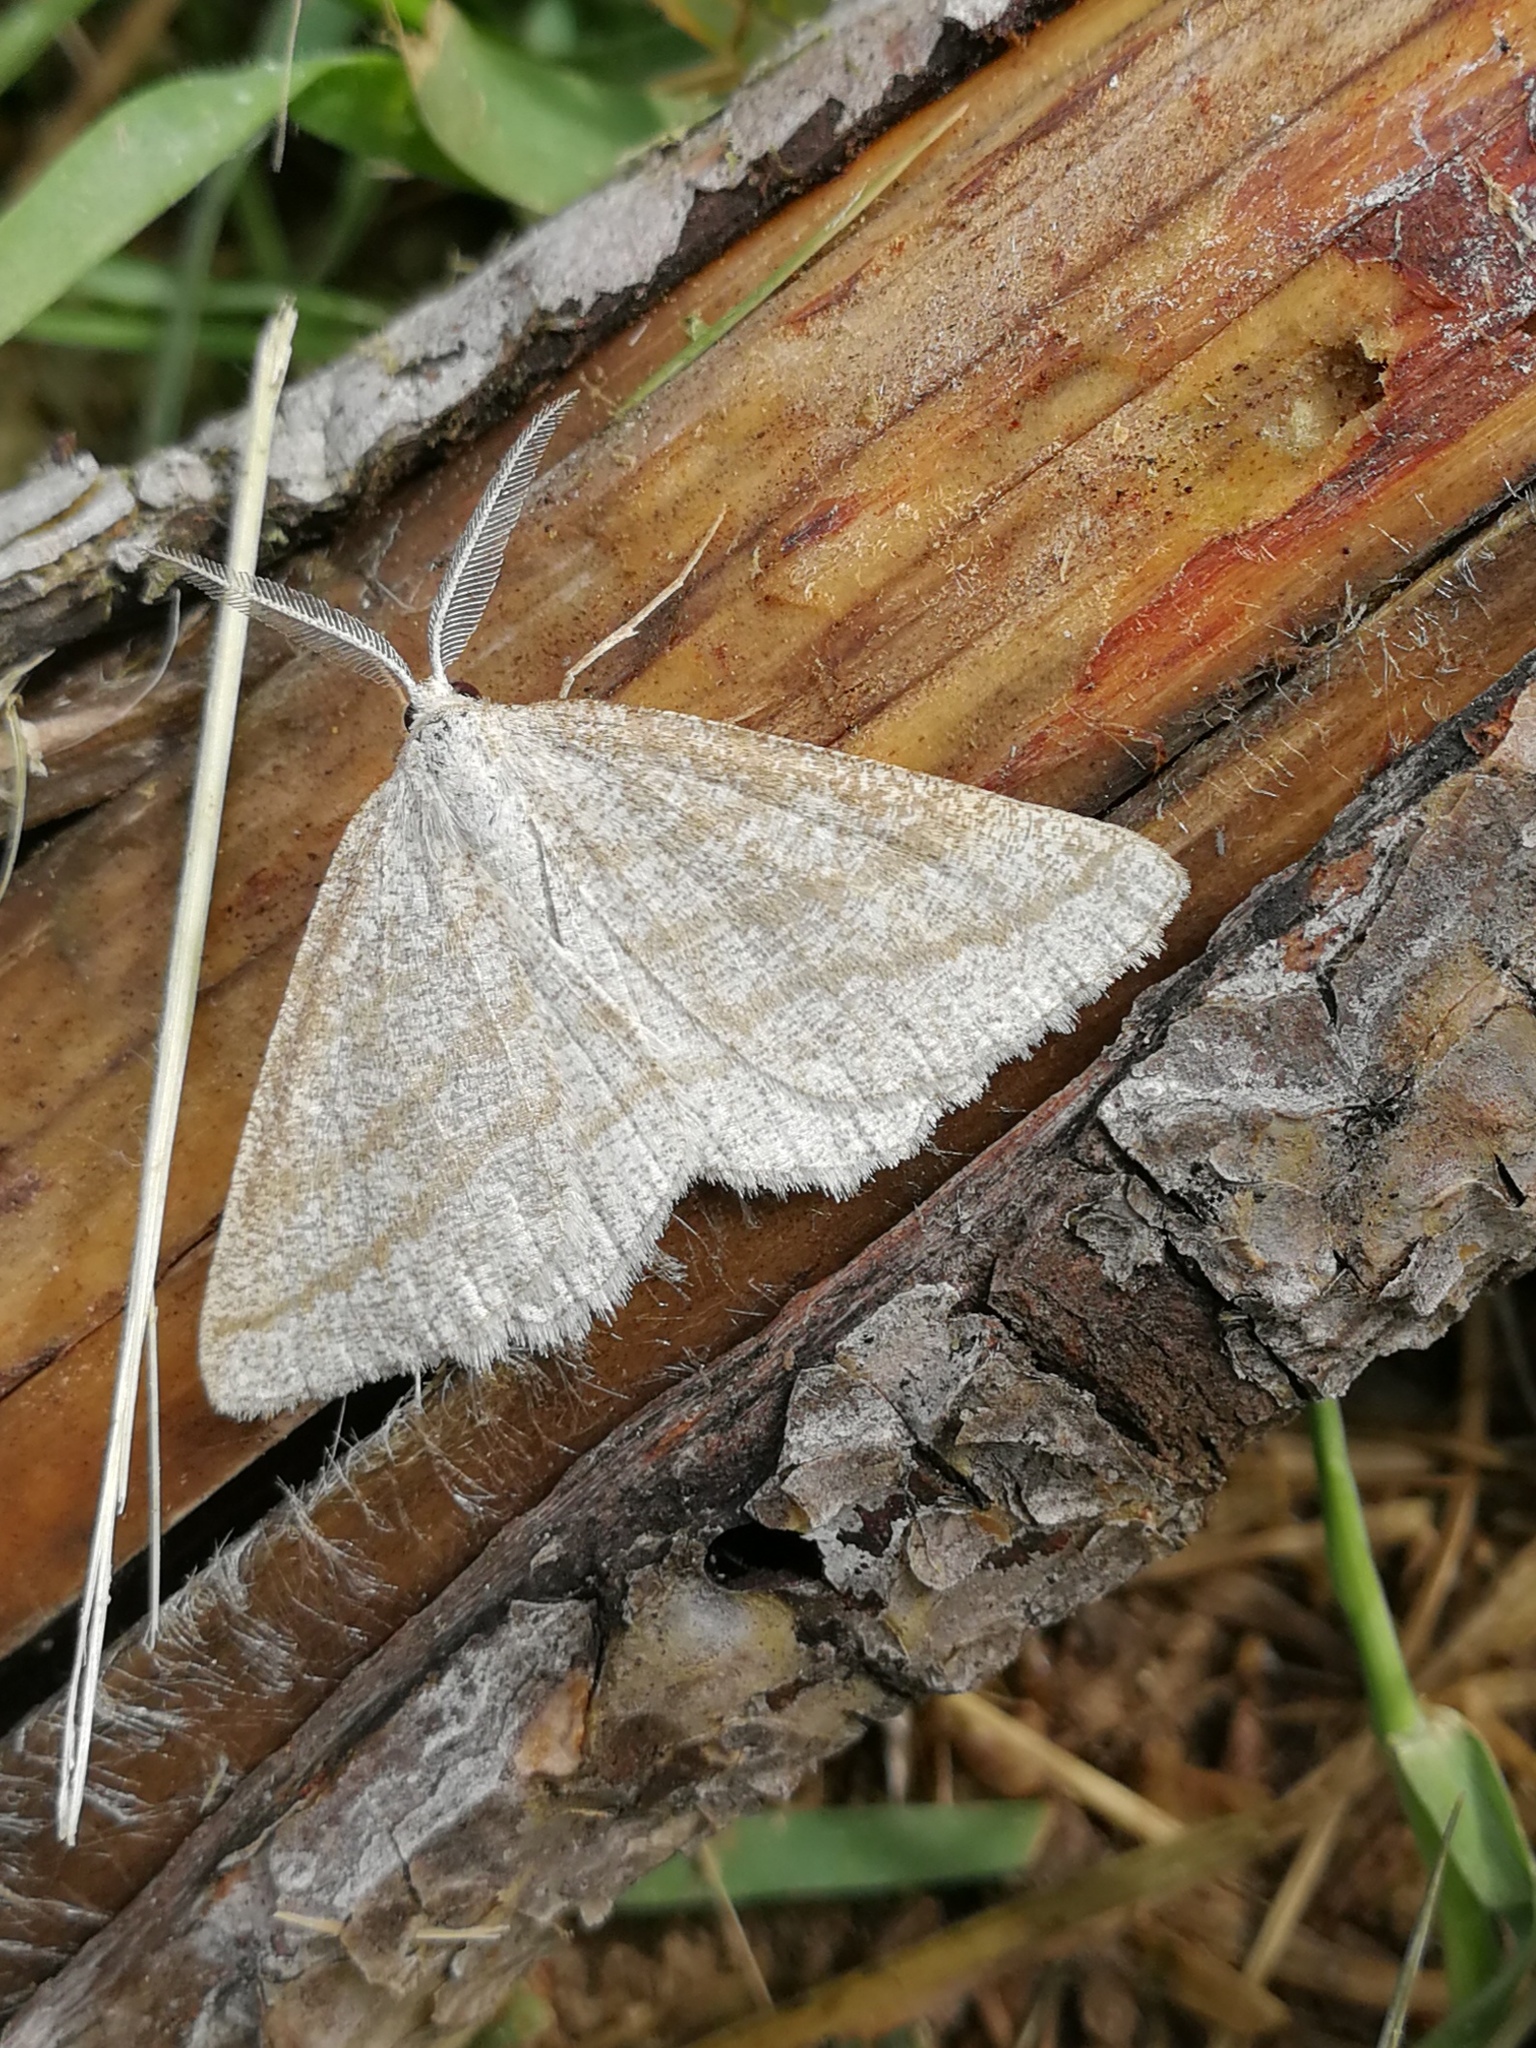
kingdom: Animalia
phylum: Arthropoda
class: Insecta
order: Lepidoptera
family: Geometridae
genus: Perconia
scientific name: Perconia strigillaria
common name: Grass wave
